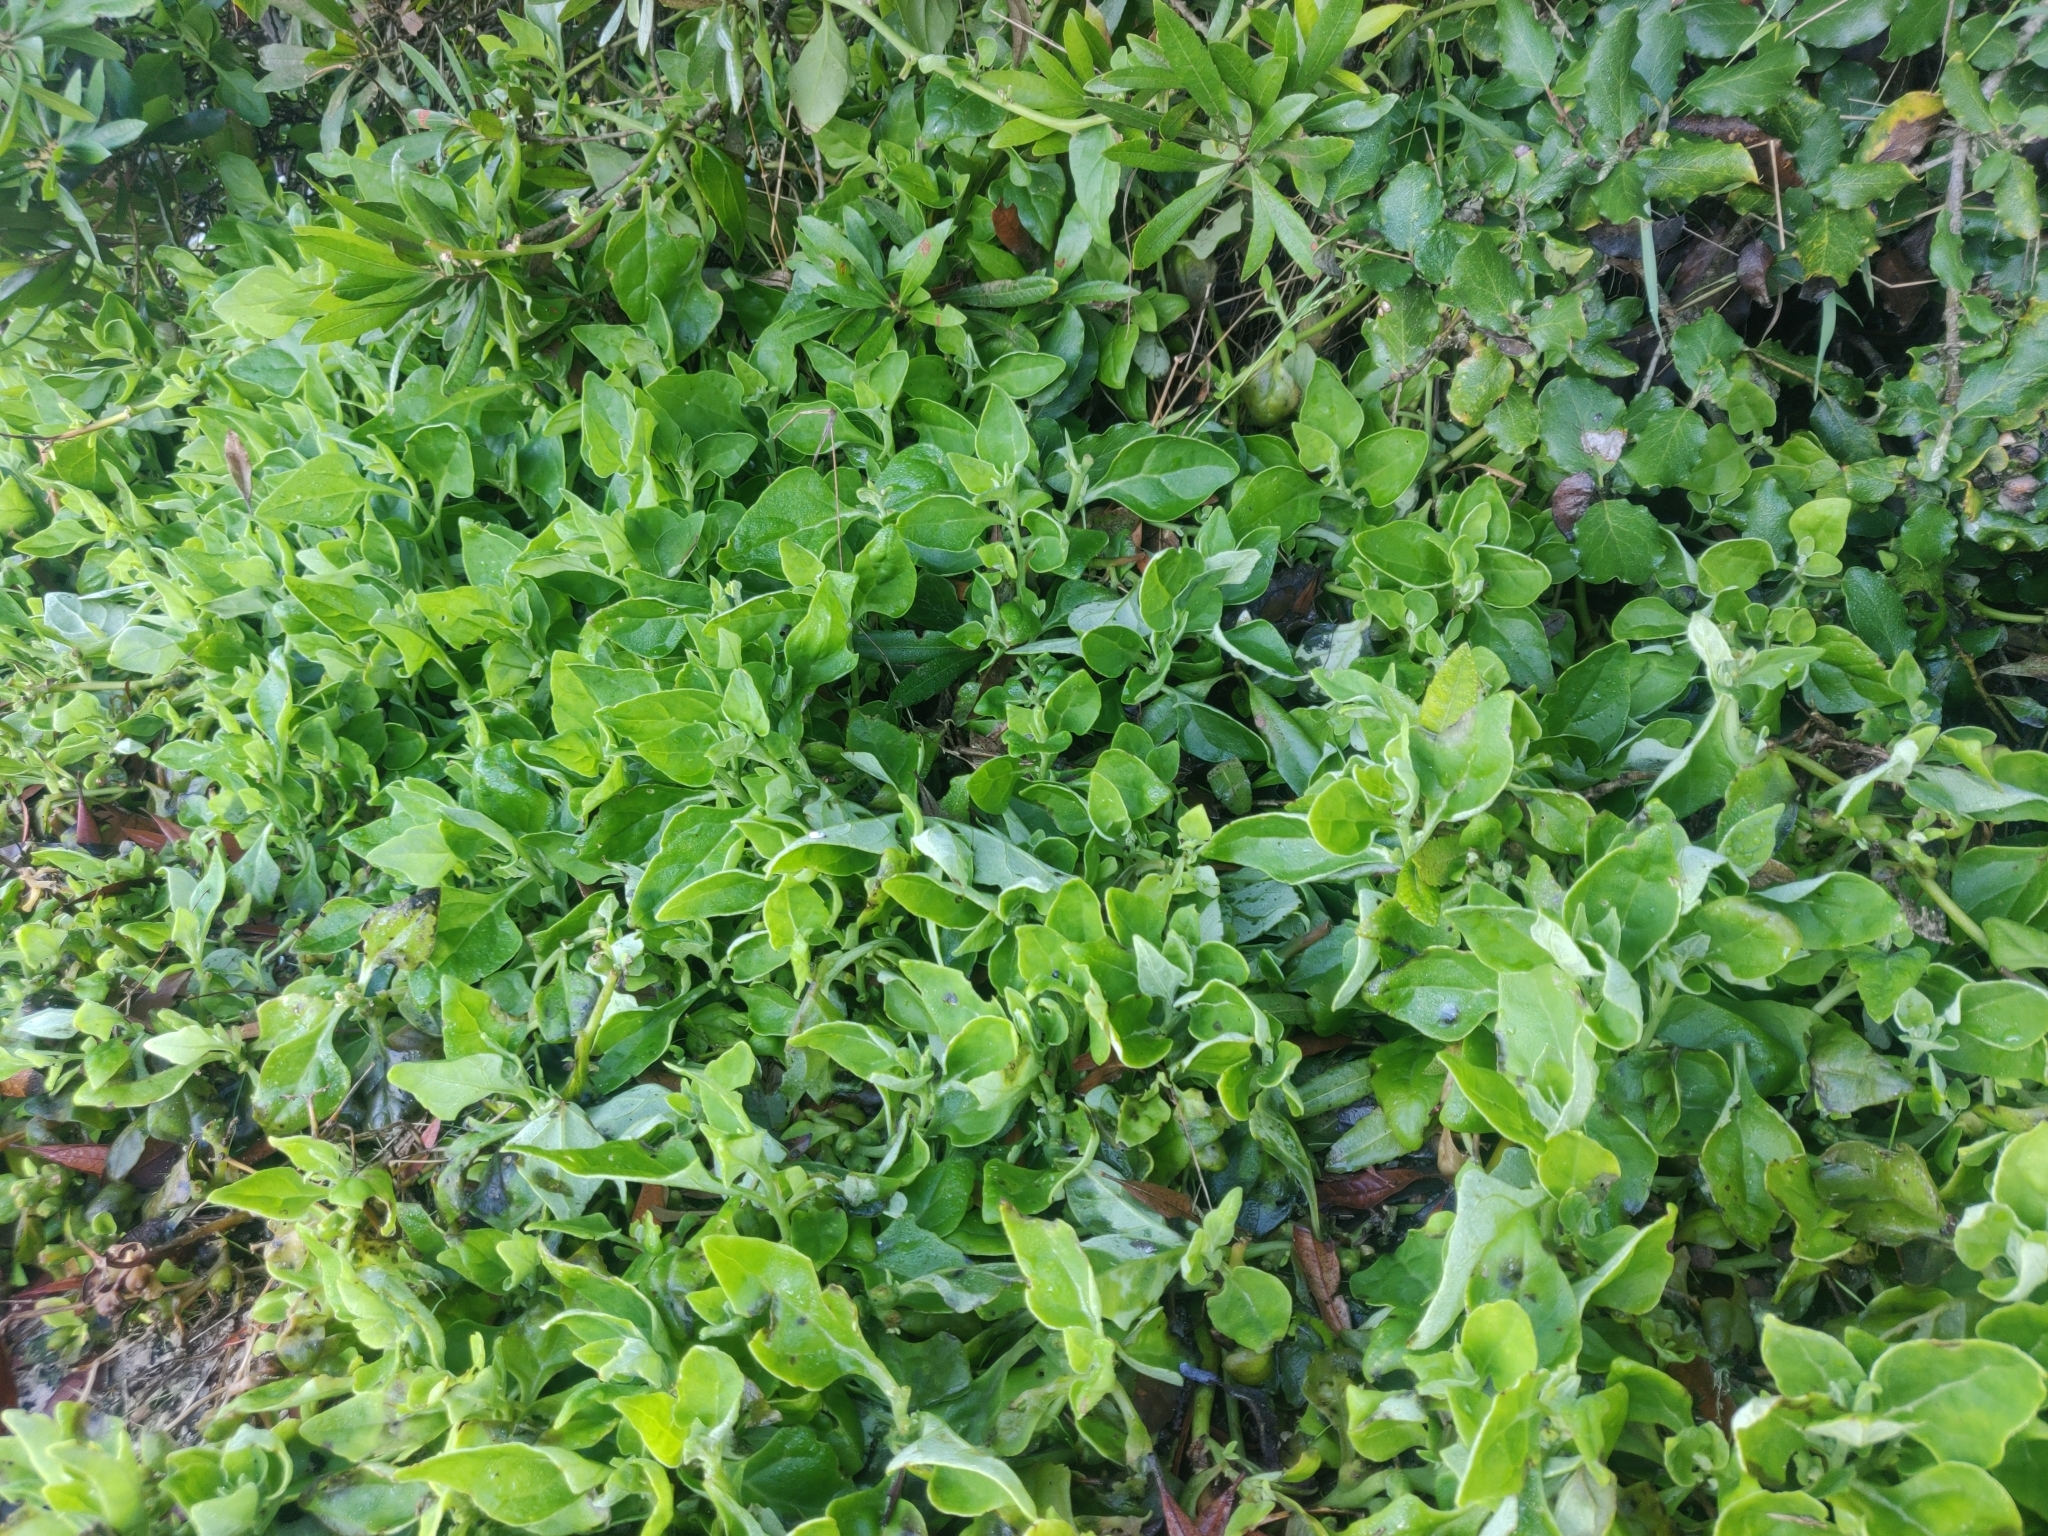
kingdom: Plantae
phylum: Tracheophyta
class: Magnoliopsida
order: Caryophyllales
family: Aizoaceae
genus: Tetragonia
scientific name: Tetragonia tetragonoides
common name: New zealand-spinach
